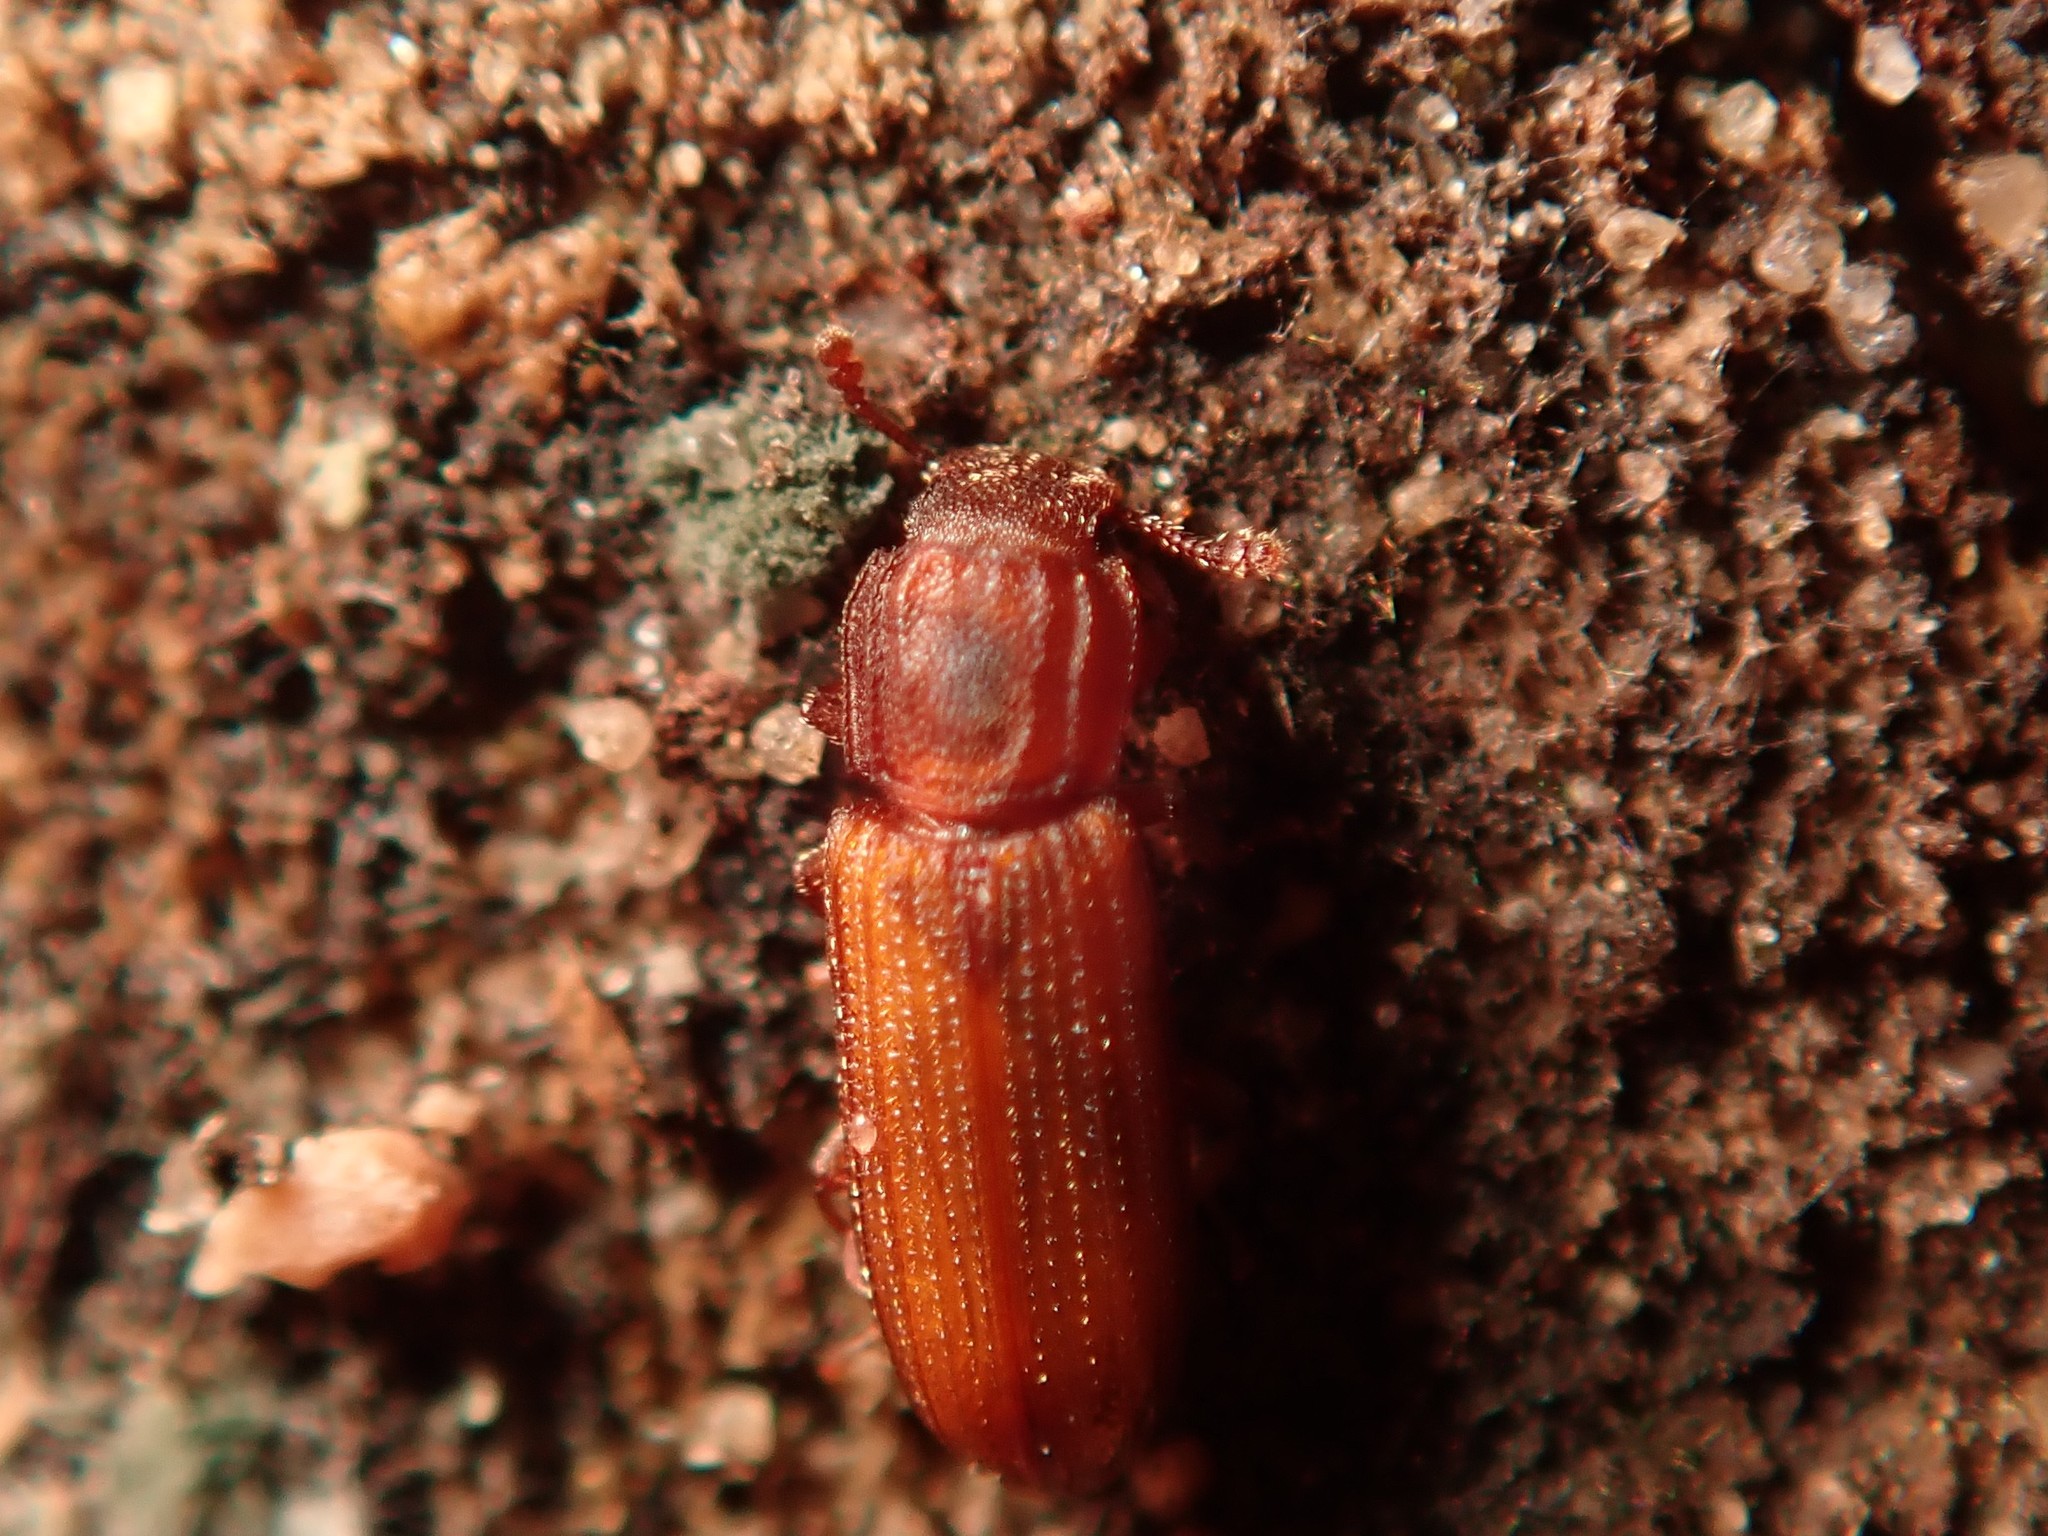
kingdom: Animalia
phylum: Arthropoda
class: Insecta
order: Coleoptera
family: Zopheridae
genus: Bitoma
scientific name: Bitoma crenata
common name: Bark beetle
